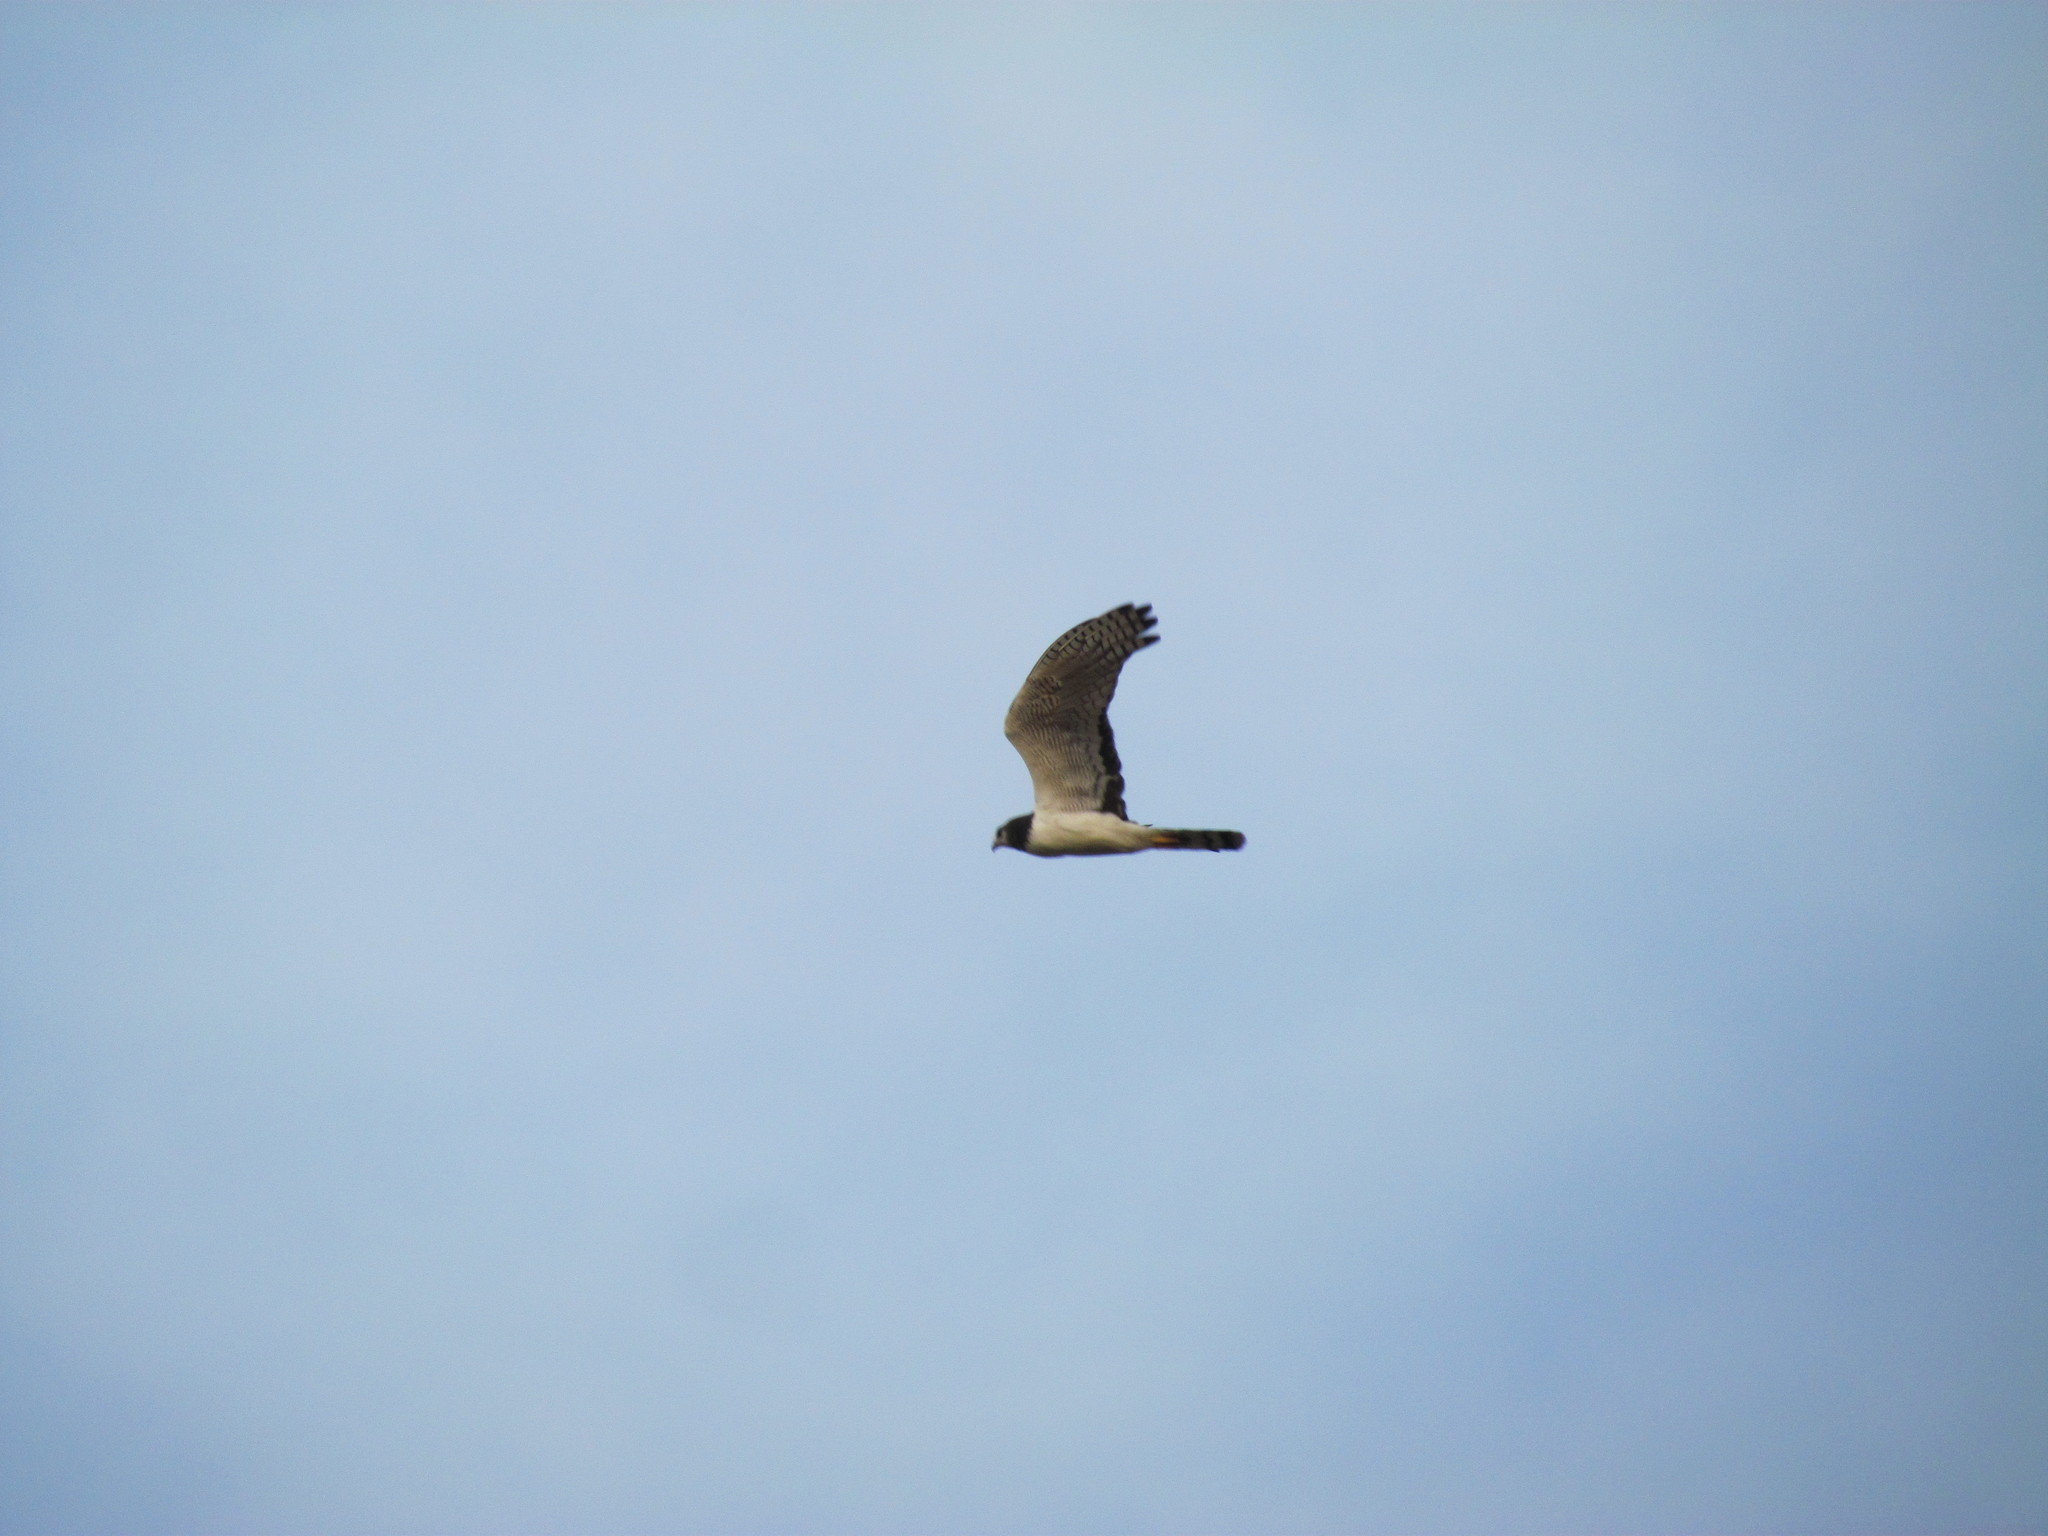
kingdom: Animalia
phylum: Chordata
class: Aves
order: Accipitriformes
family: Accipitridae
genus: Circus
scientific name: Circus buffoni
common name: Long-winged harrier
